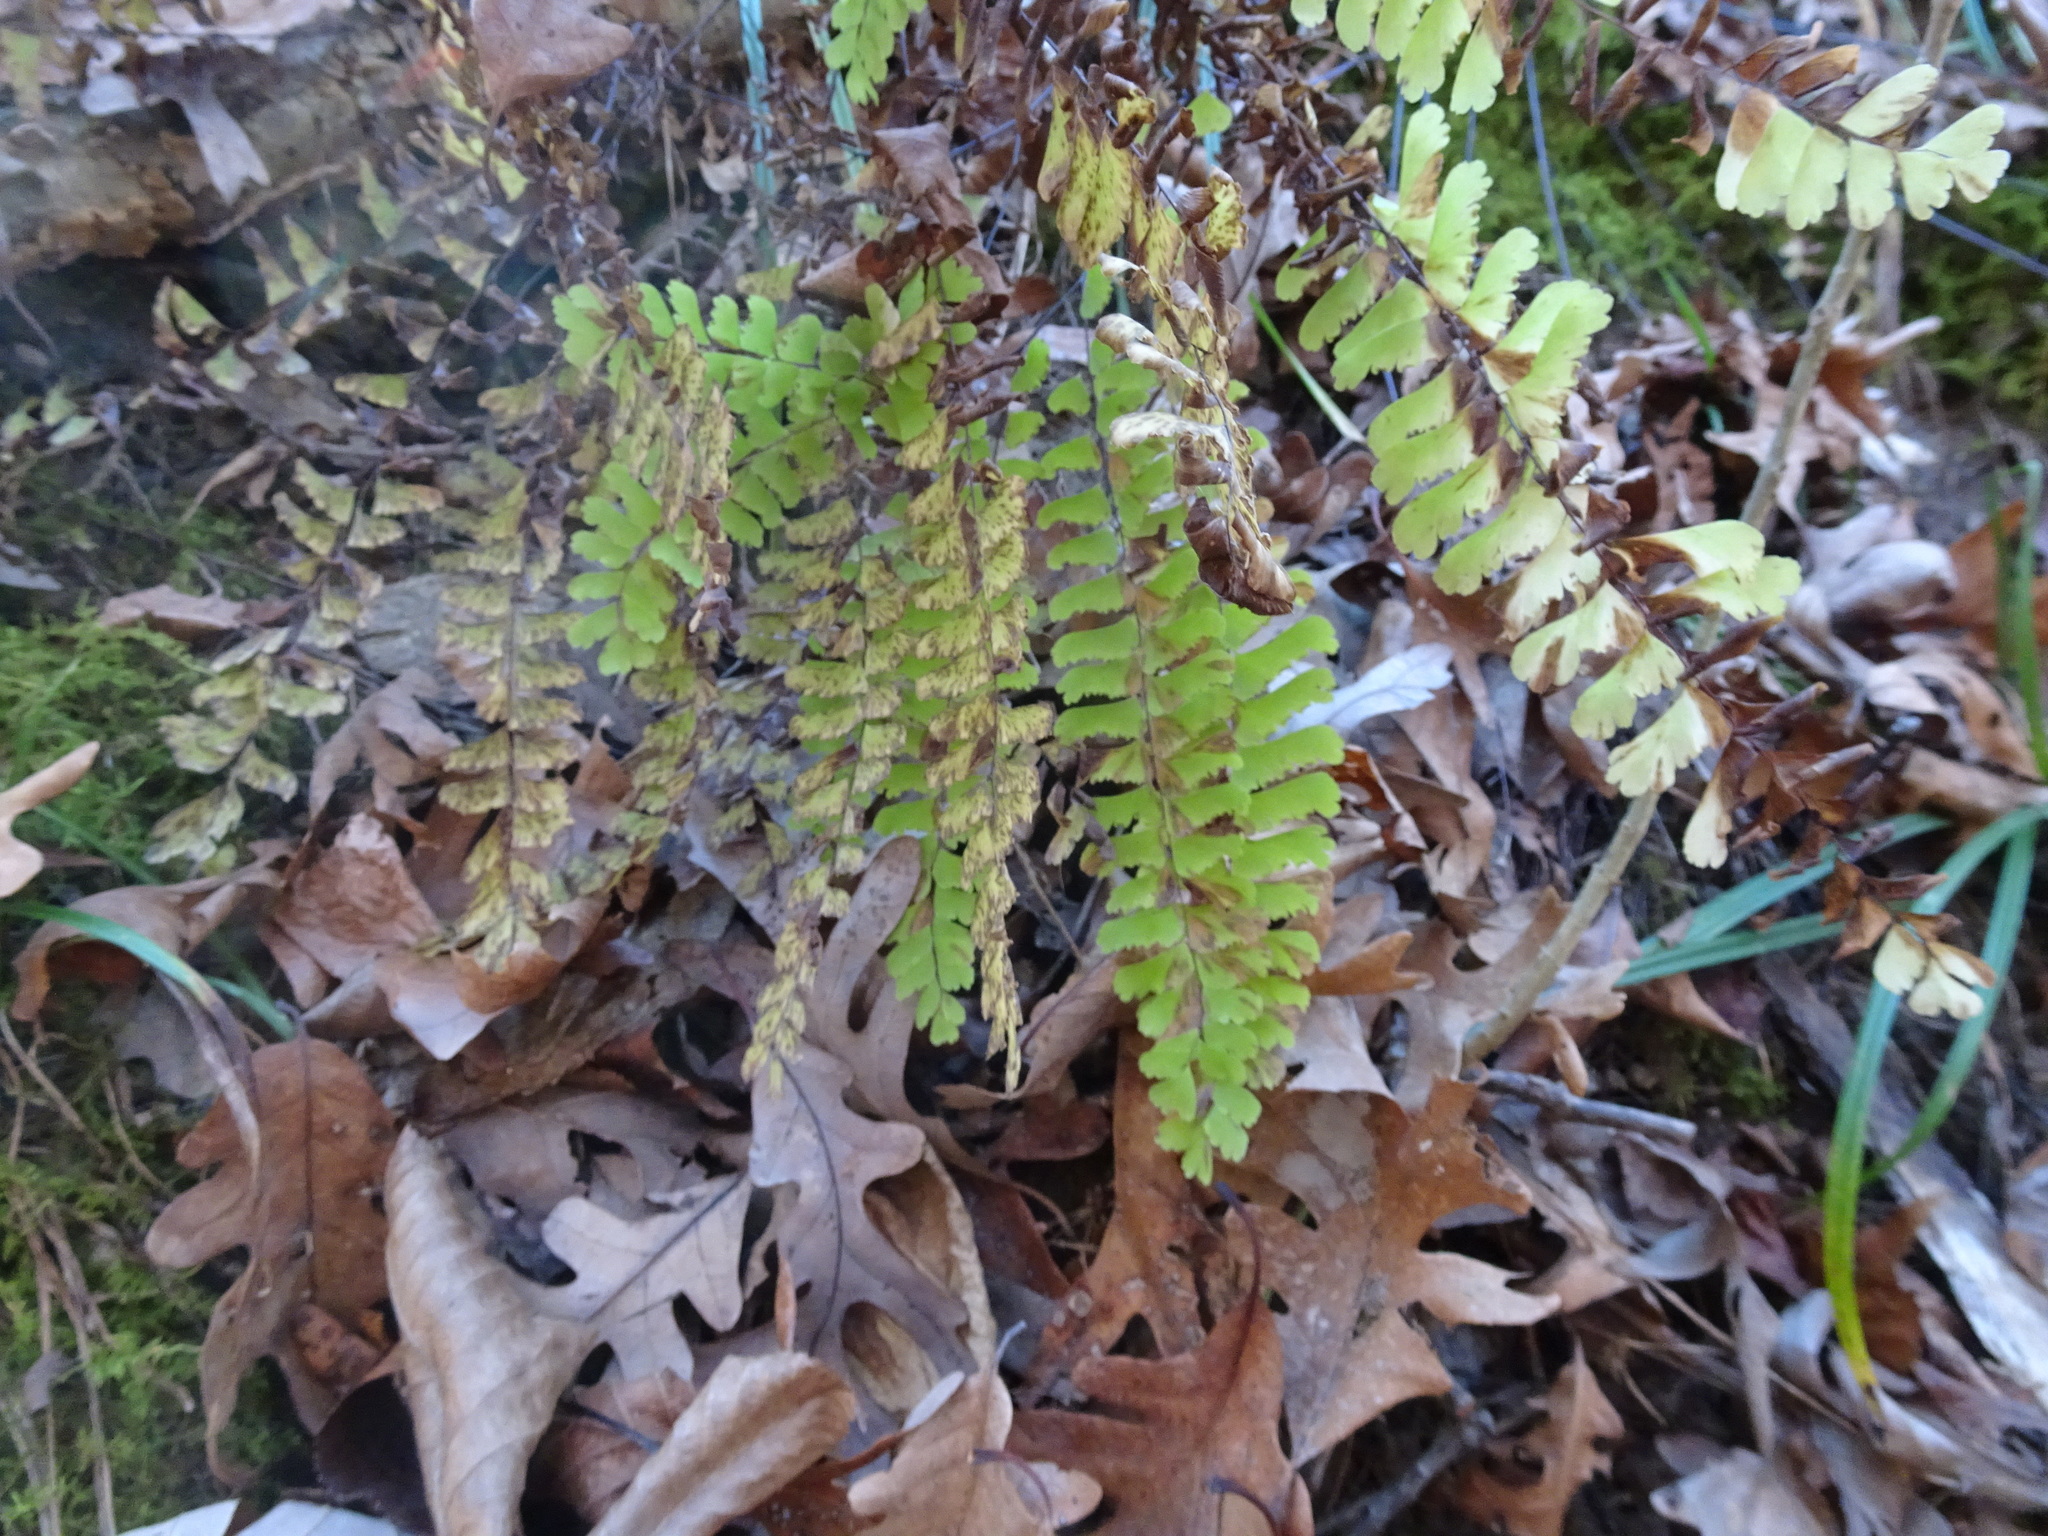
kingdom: Plantae
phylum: Tracheophyta
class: Polypodiopsida
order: Polypodiales
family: Pteridaceae
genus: Adiantum
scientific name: Adiantum pedatum
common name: Five-finger fern
